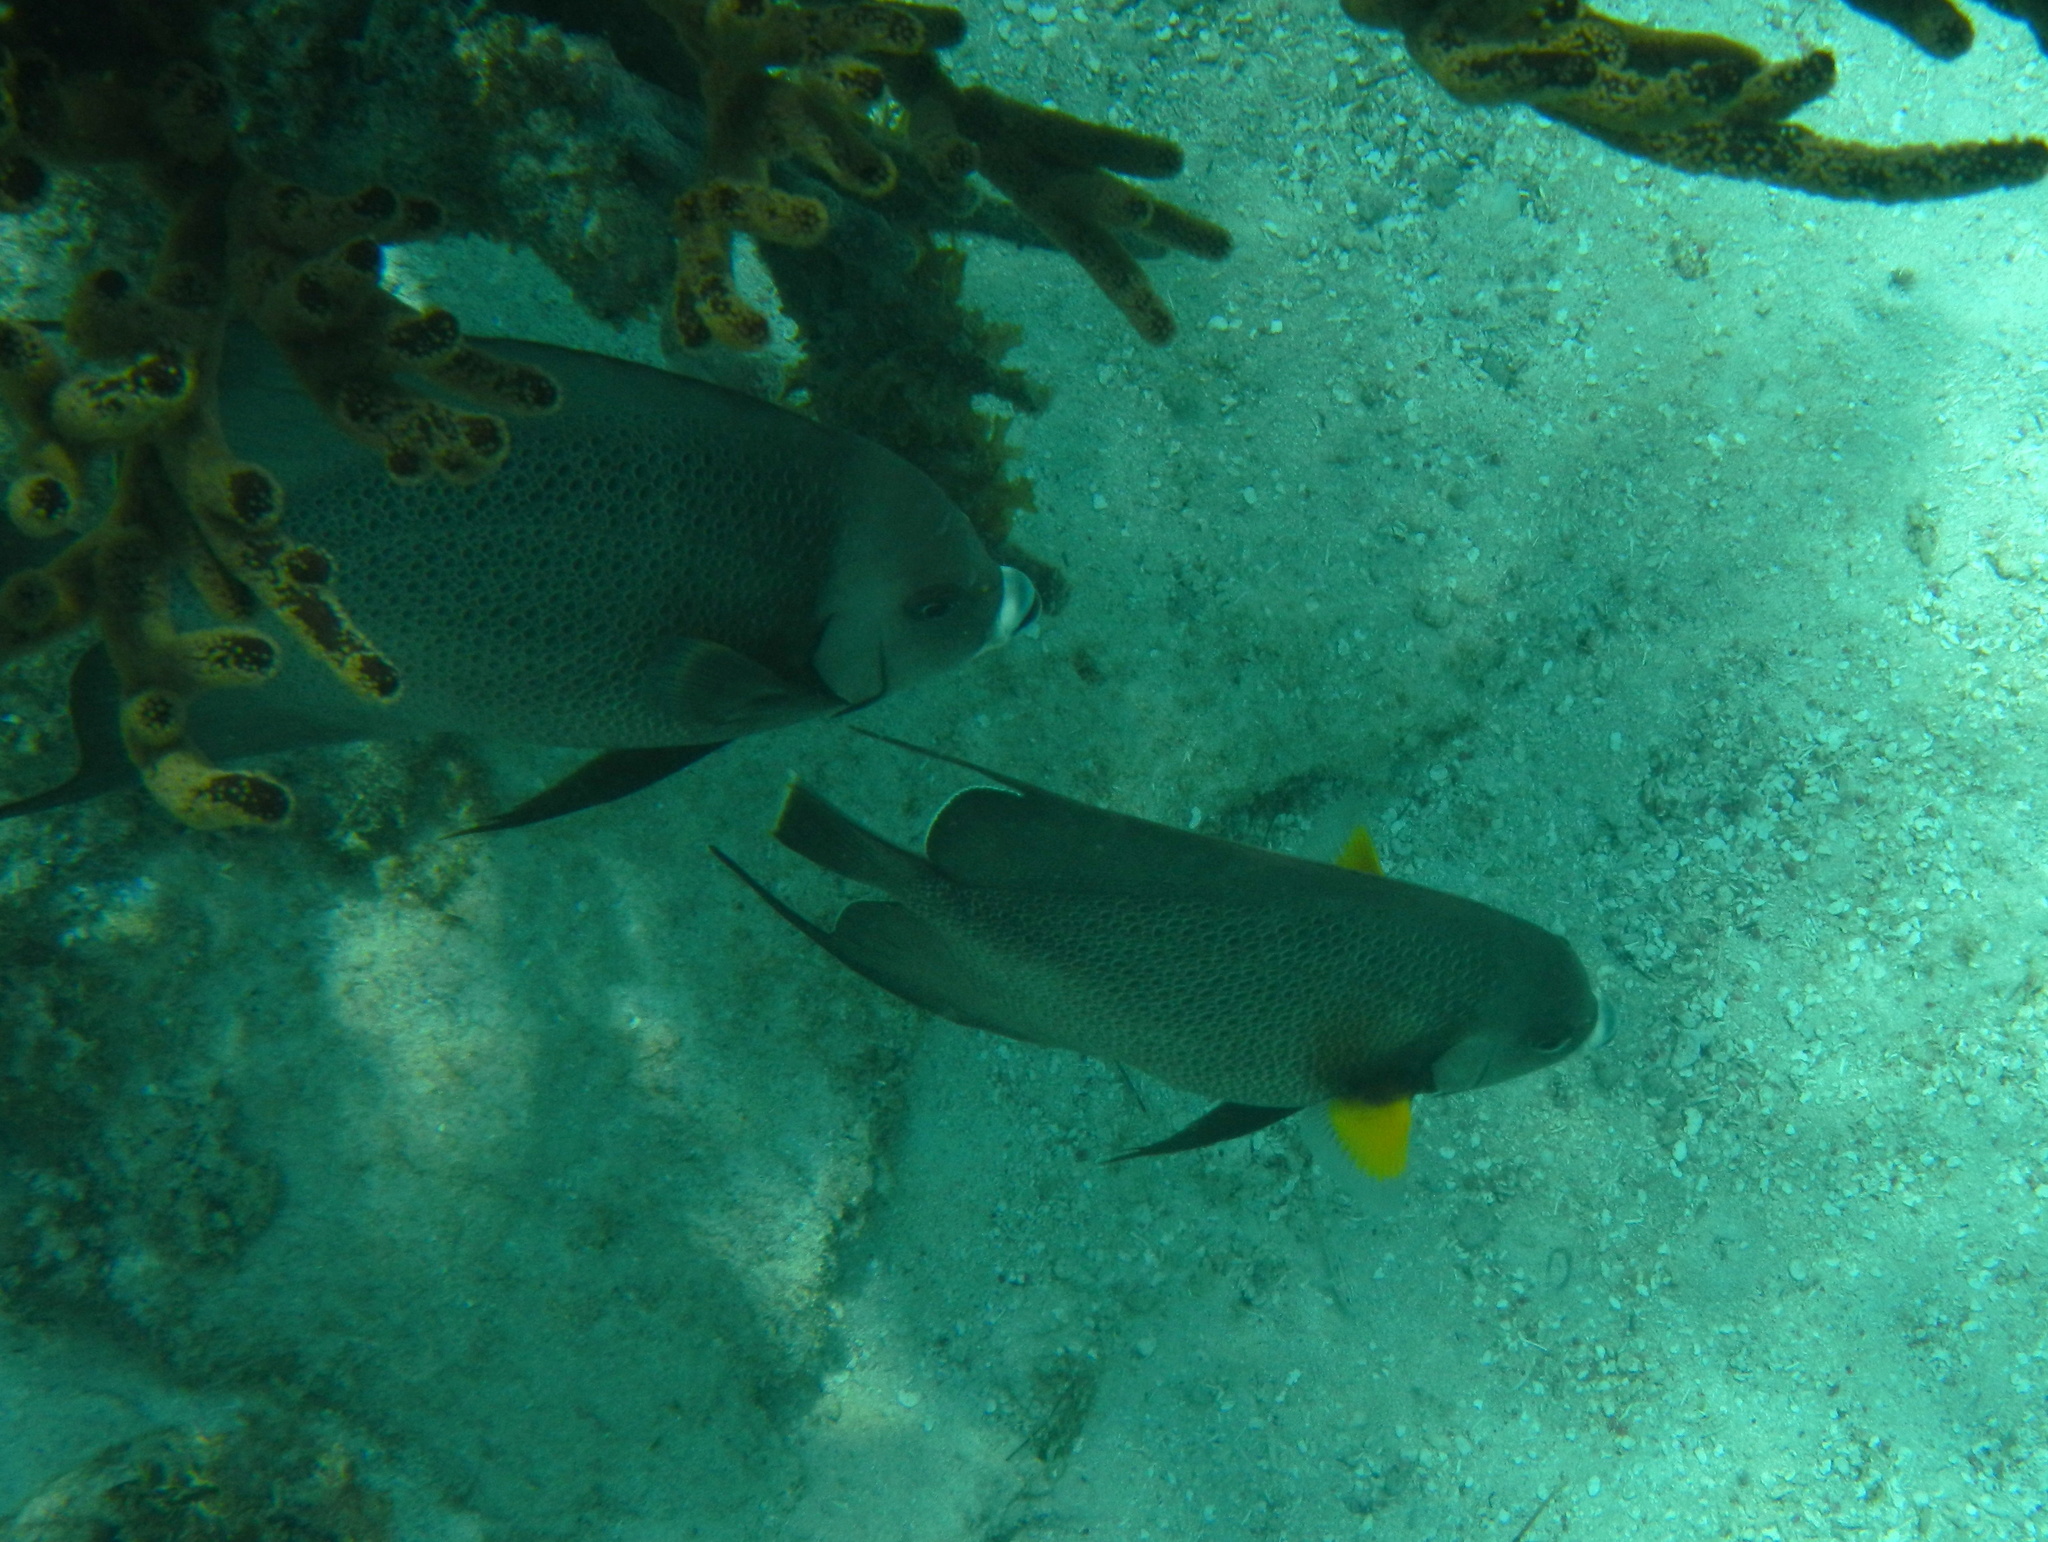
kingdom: Animalia
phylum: Chordata
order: Perciformes
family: Pomacanthidae
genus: Pomacanthus
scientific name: Pomacanthus arcuatus
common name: Gray angelfish
